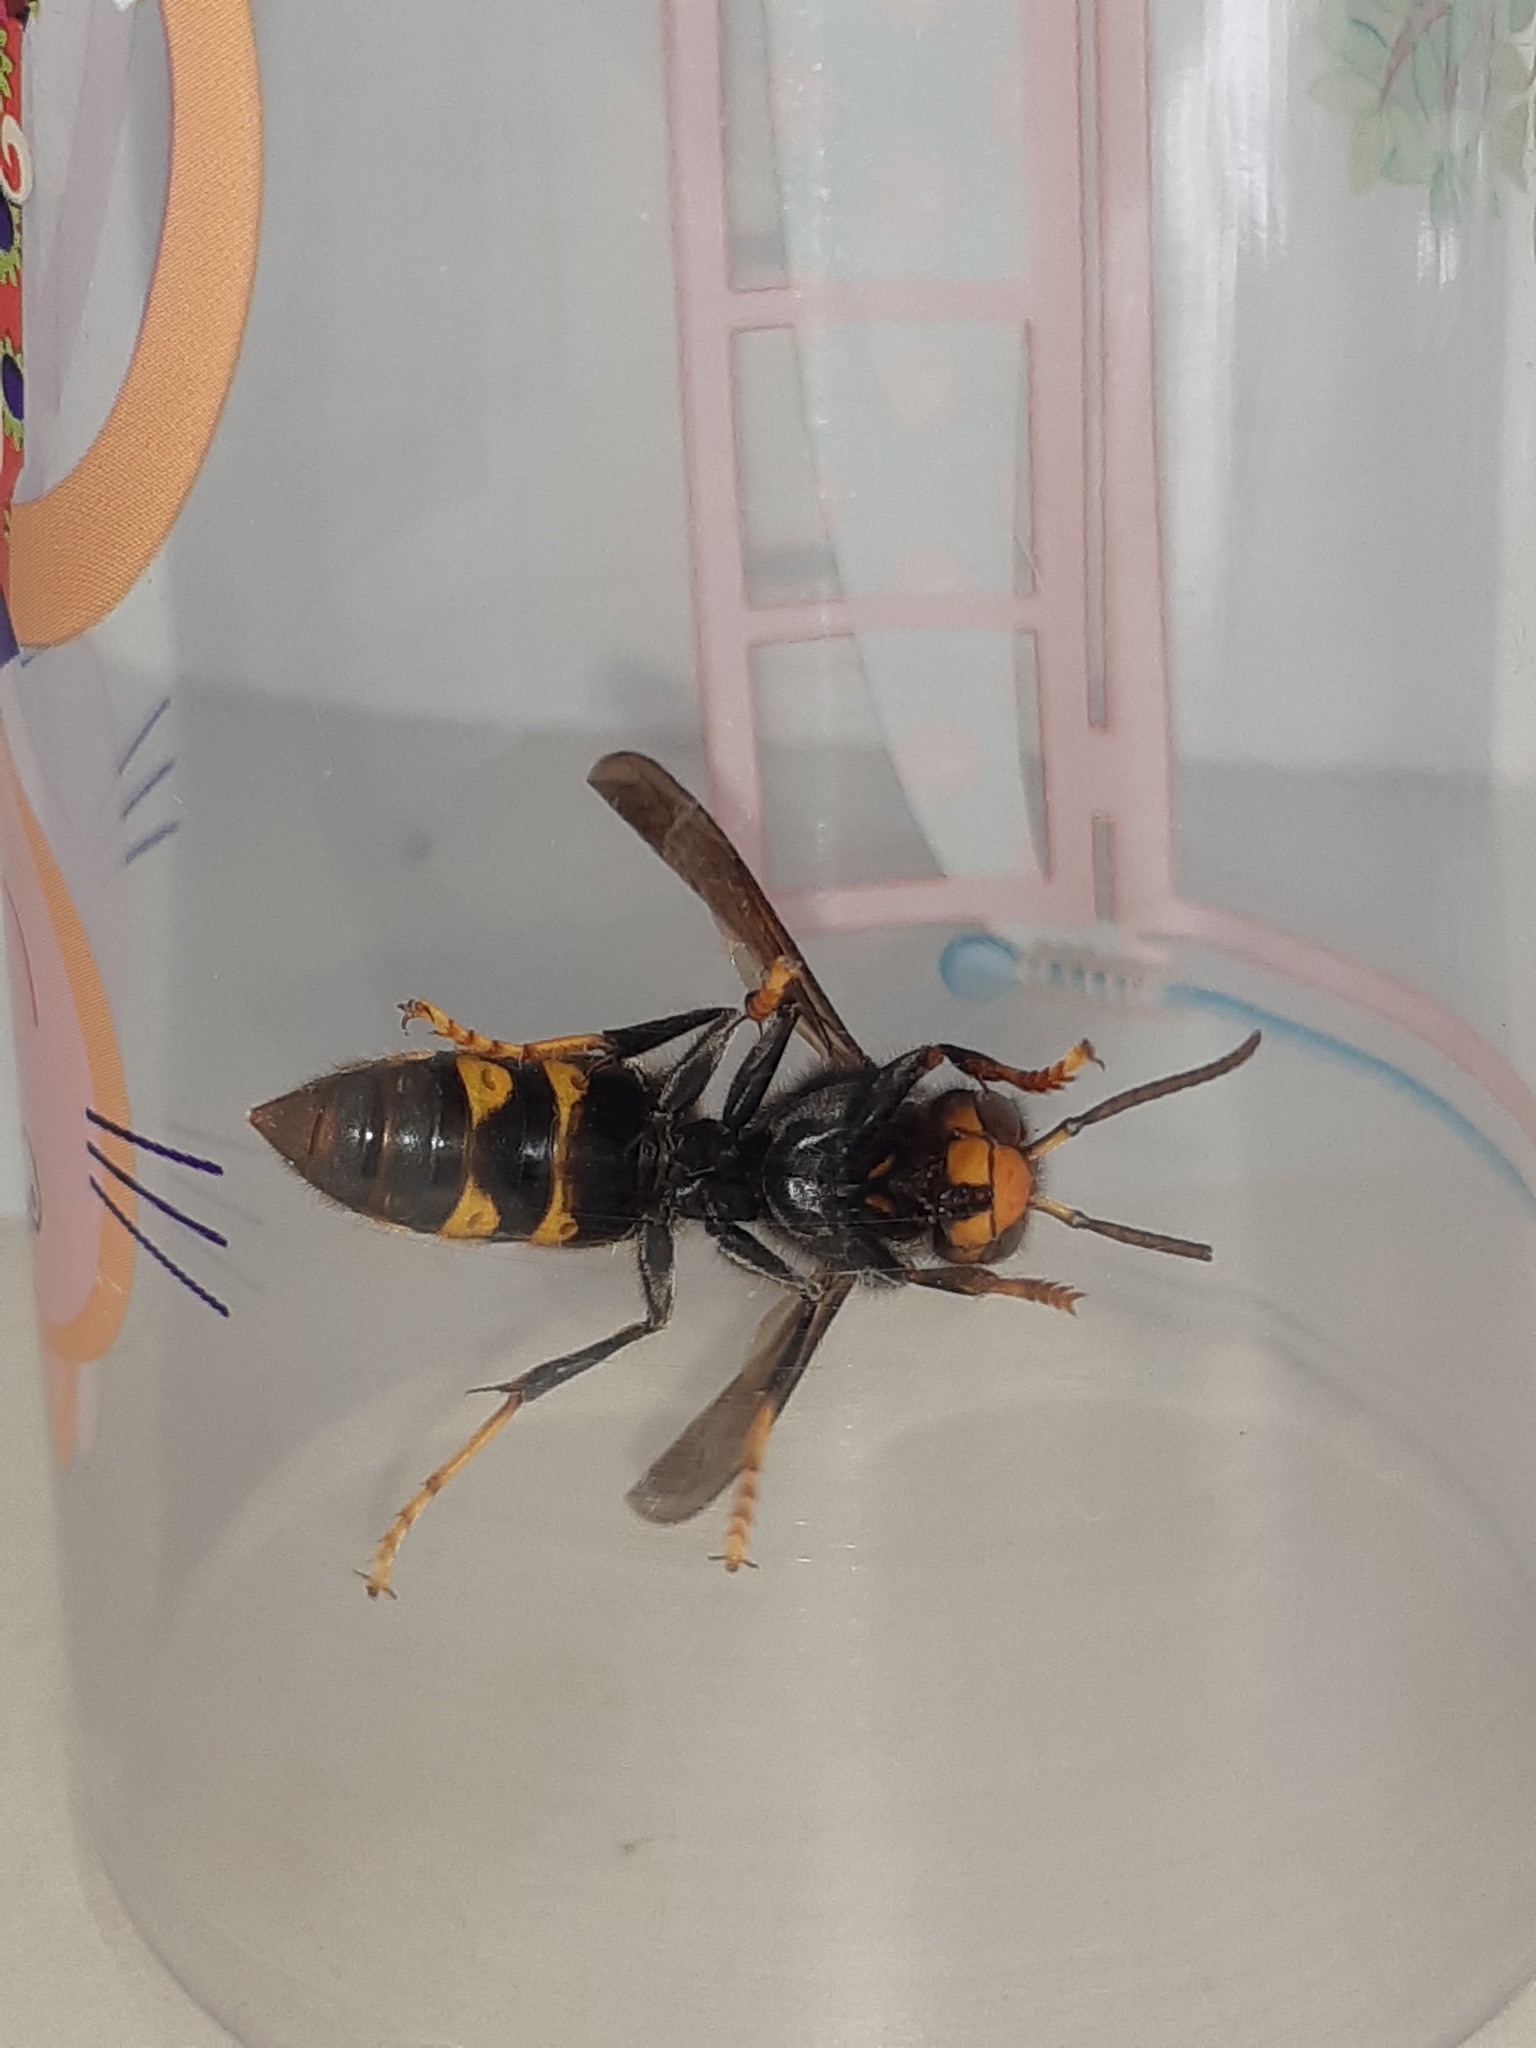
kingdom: Animalia
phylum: Arthropoda
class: Insecta
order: Hymenoptera
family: Vespidae
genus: Vespa
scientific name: Vespa velutina
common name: Asian hornet
